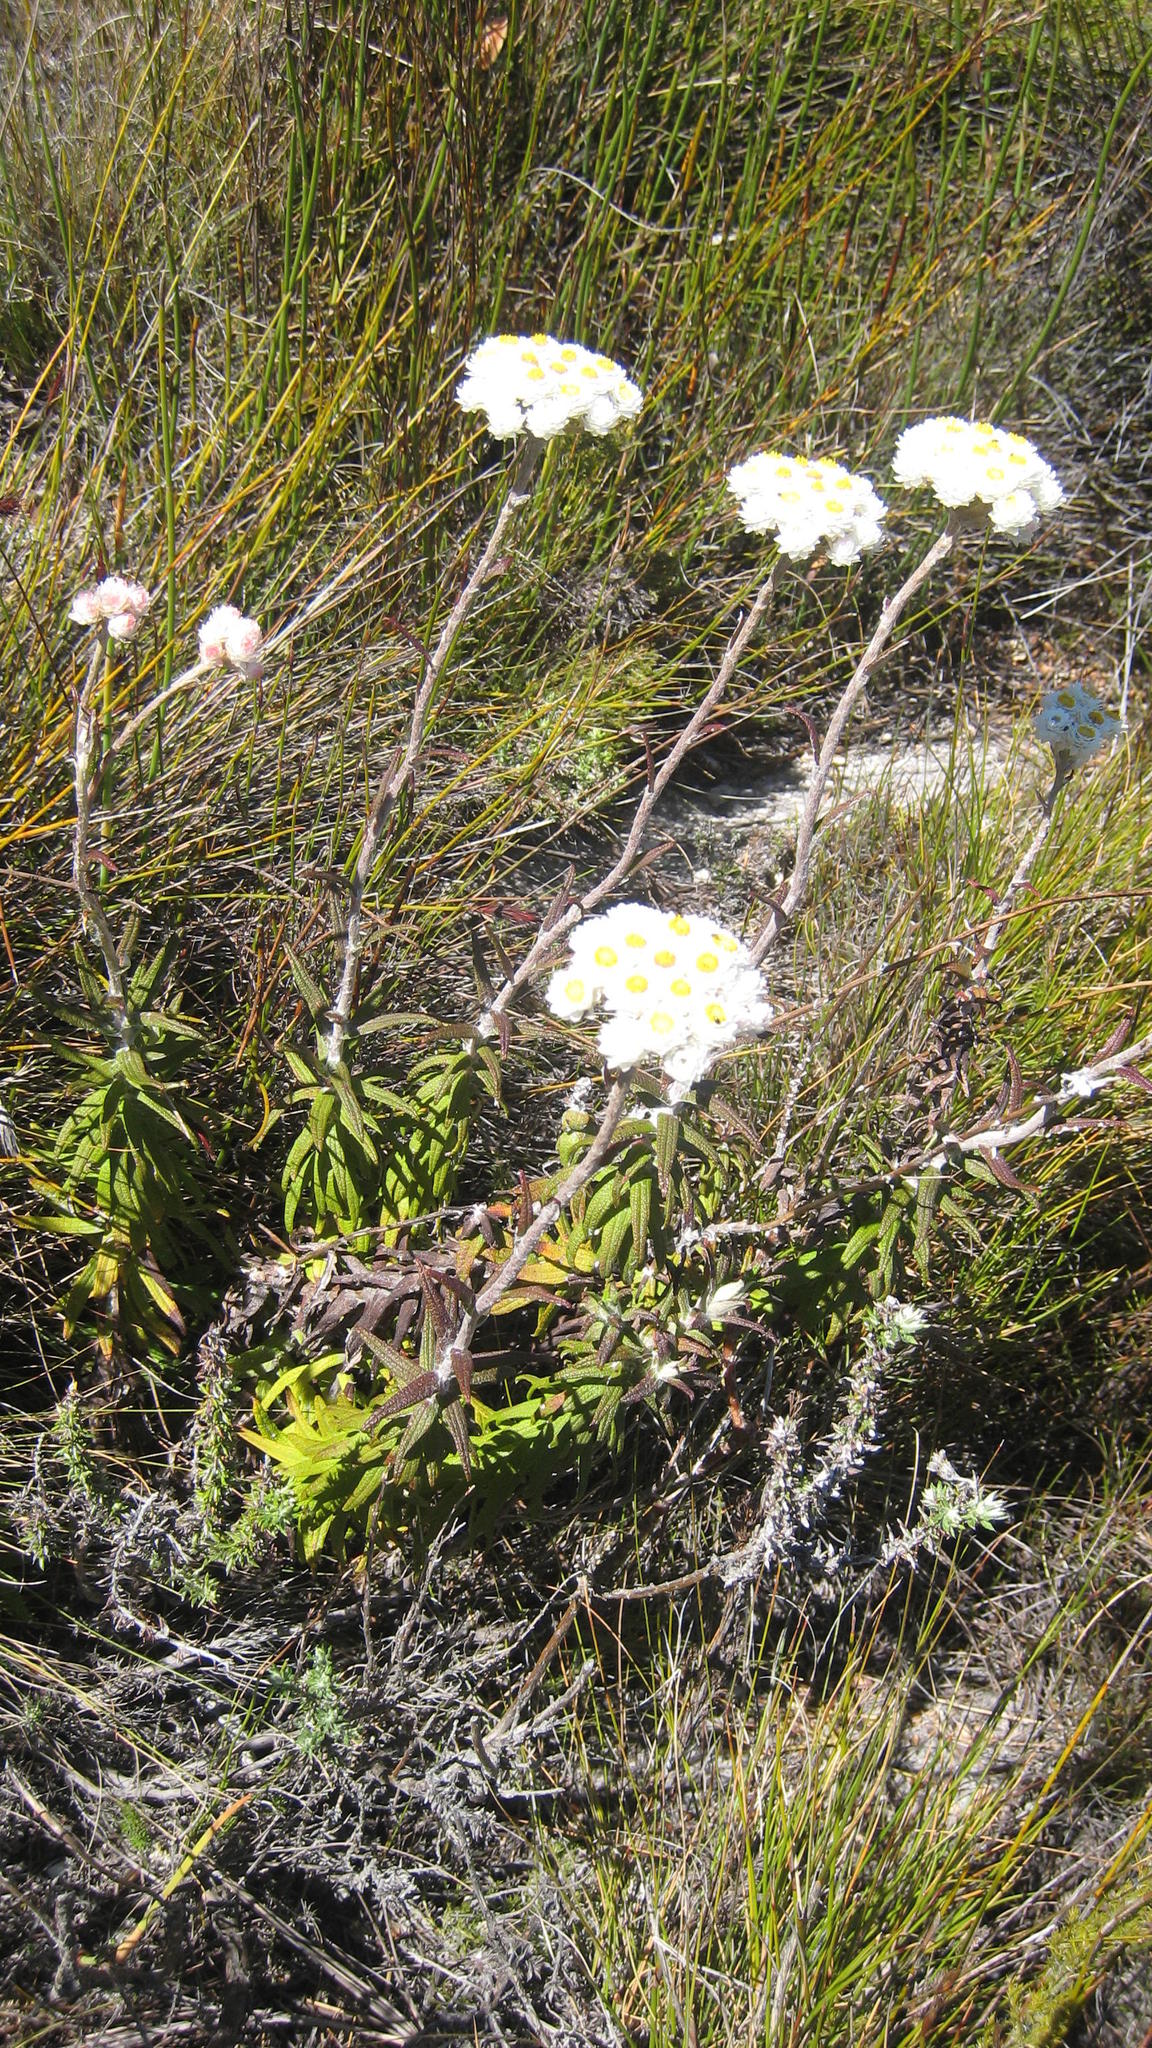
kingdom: Plantae
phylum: Tracheophyta
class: Magnoliopsida
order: Asterales
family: Asteraceae
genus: Helichrysum
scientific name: Helichrysum felinum
